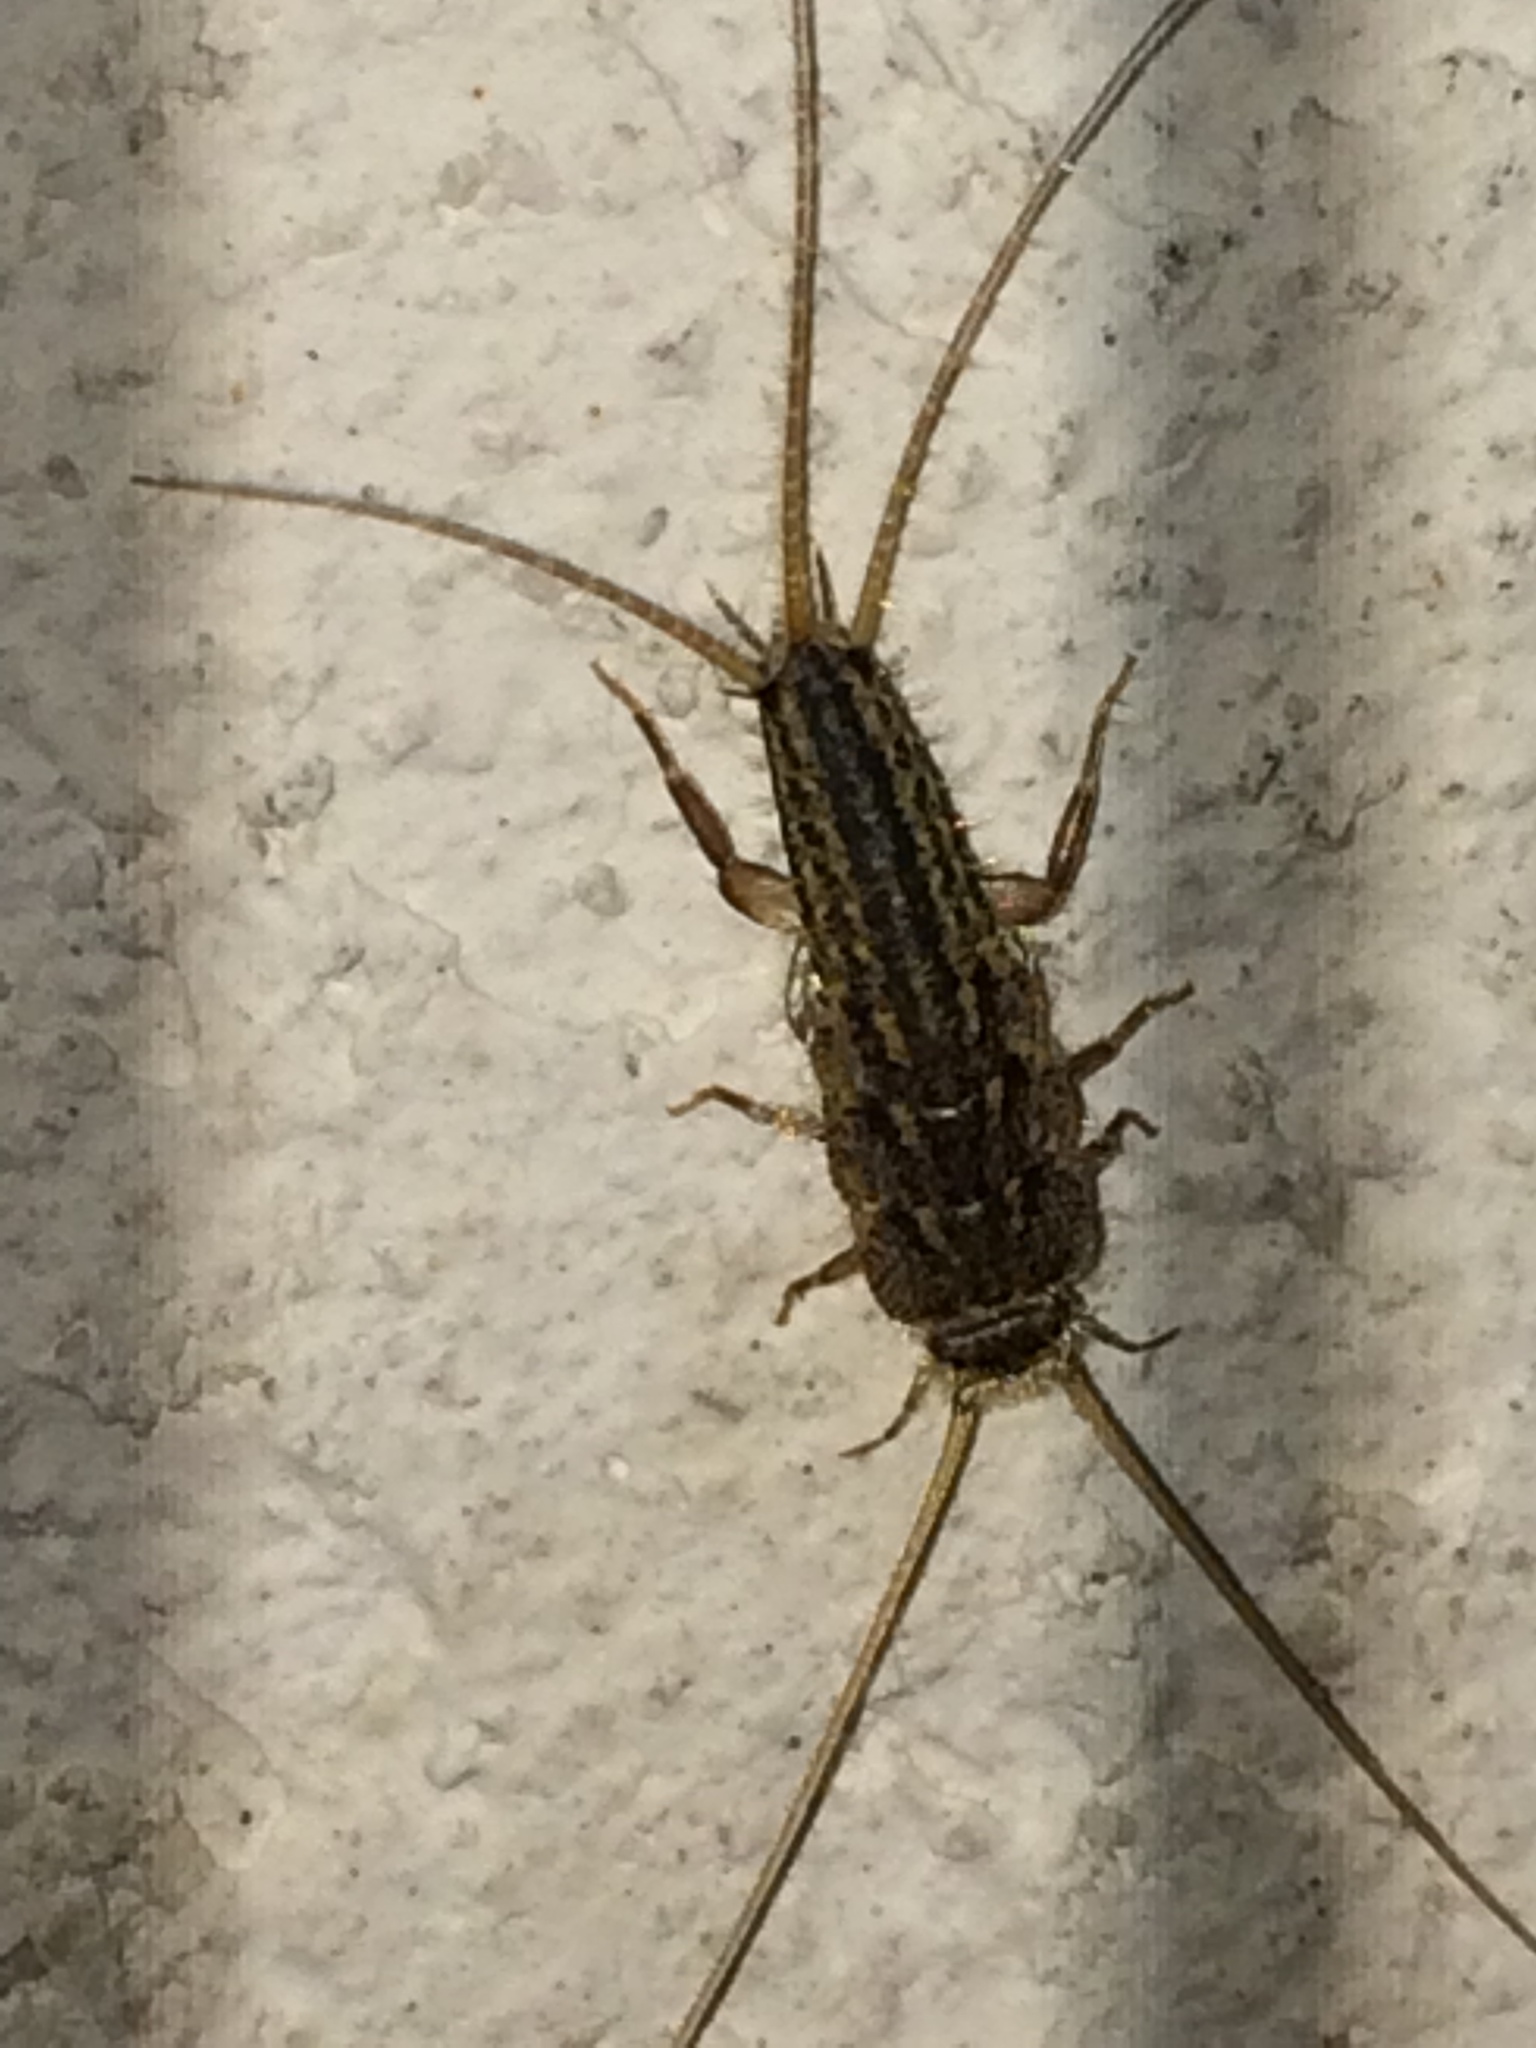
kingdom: Animalia
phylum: Arthropoda
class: Insecta
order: Zygentoma
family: Lepismatidae
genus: Ctenolepisma
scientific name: Ctenolepisma lineata
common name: Four-lined silverfish
